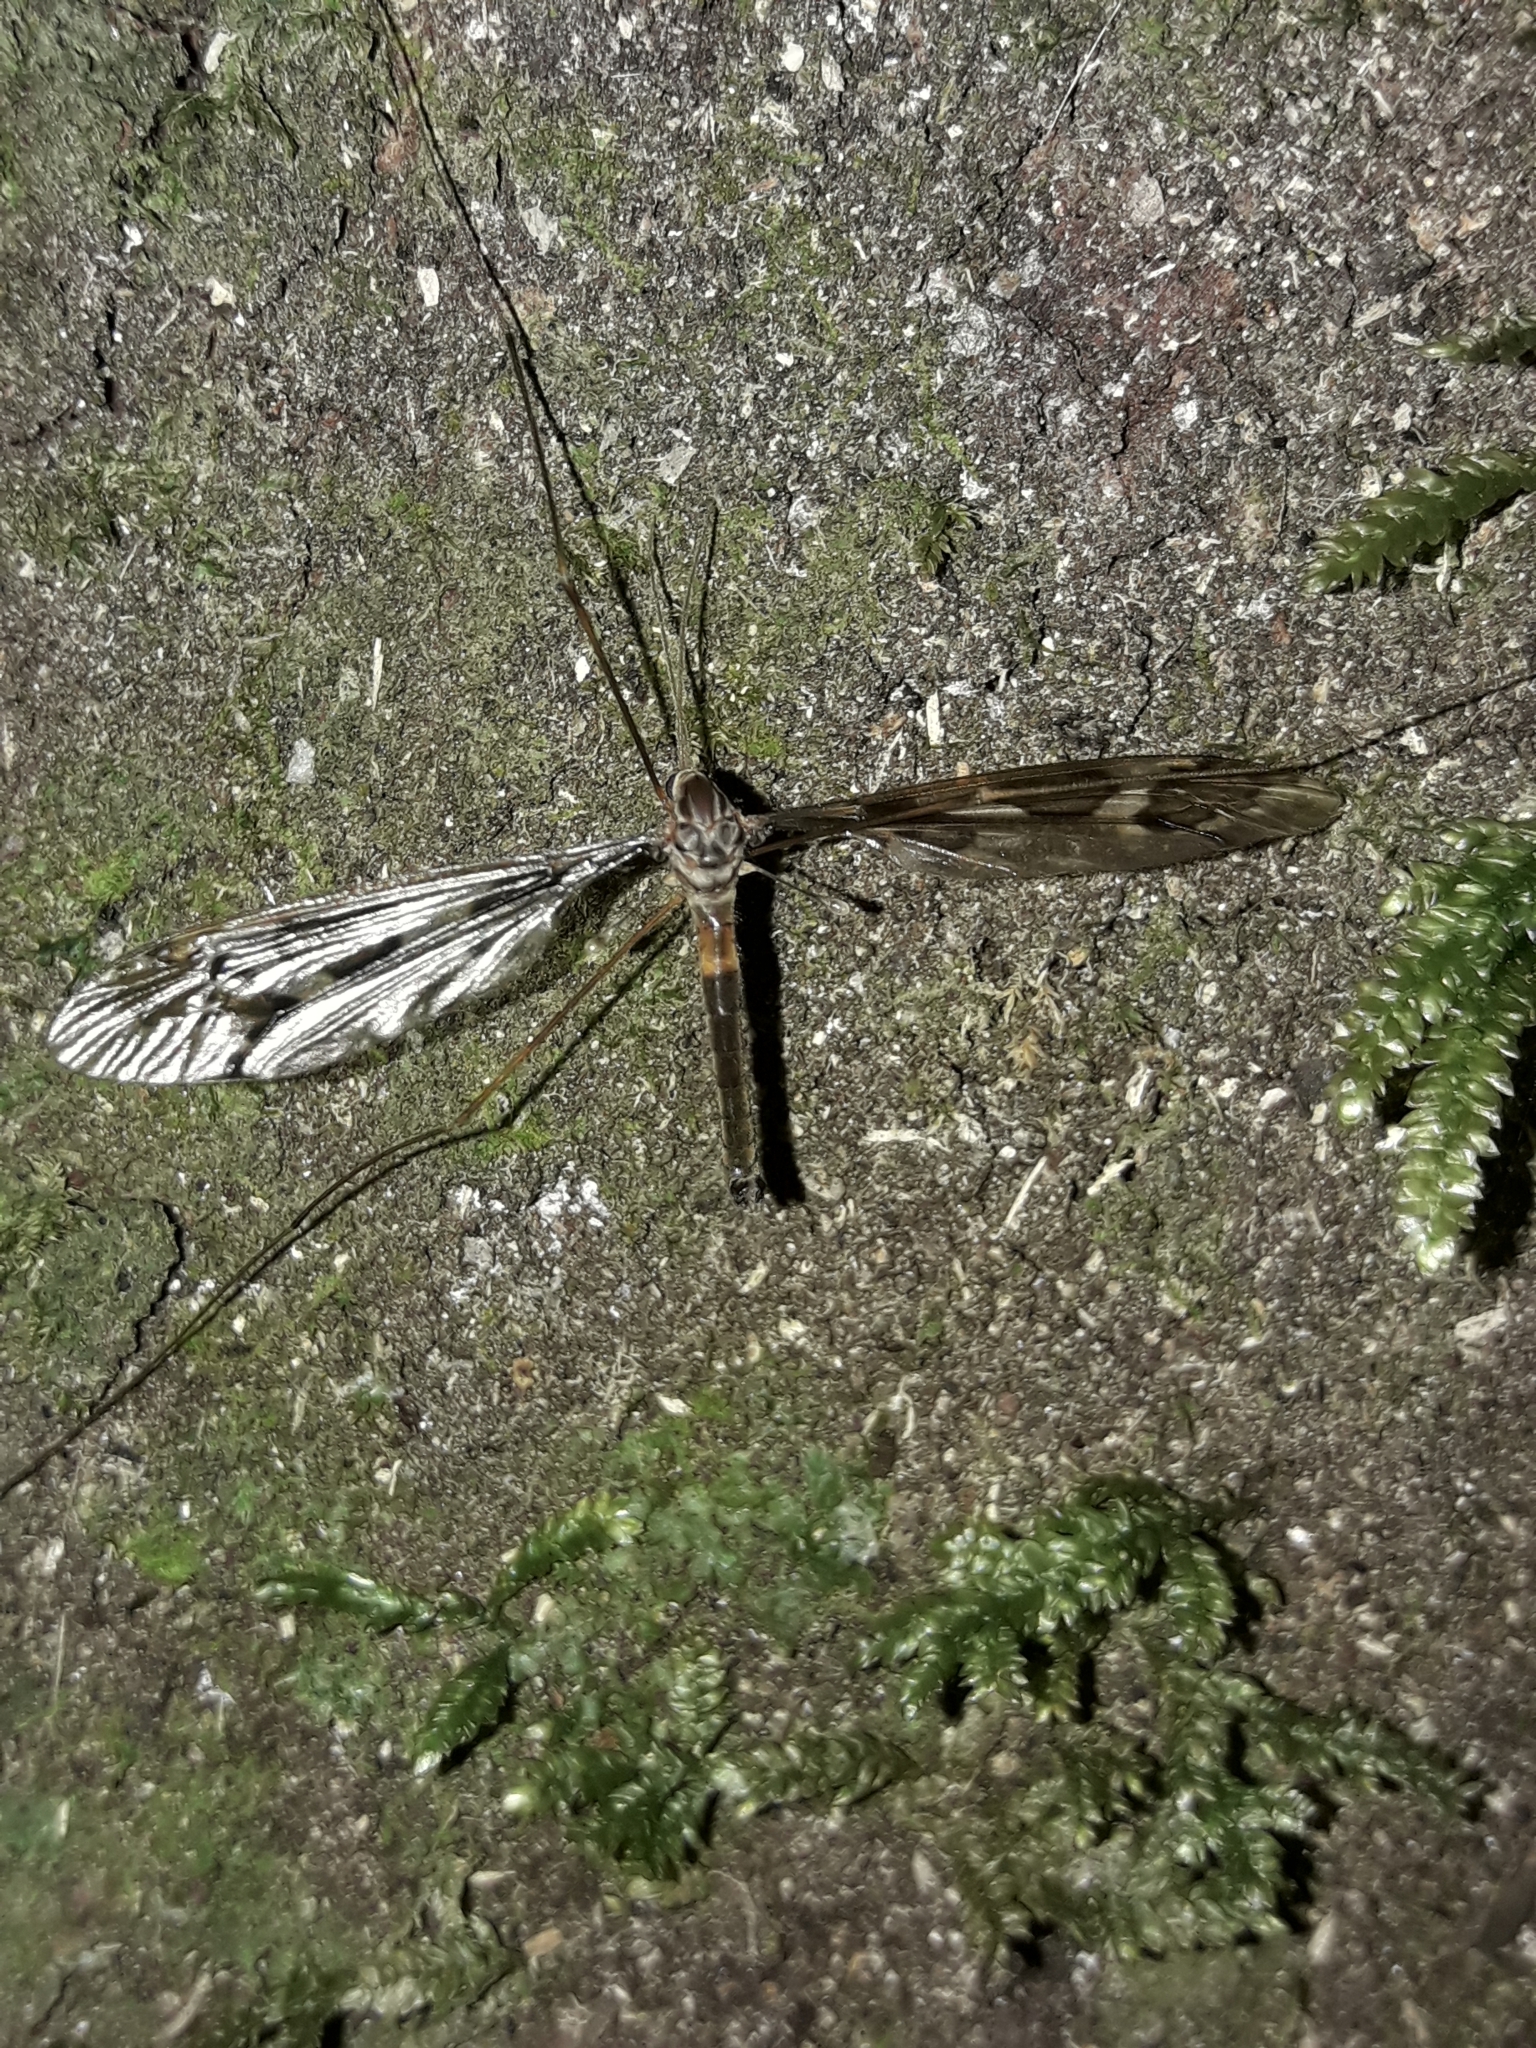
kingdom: Animalia
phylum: Arthropoda
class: Insecta
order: Diptera
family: Tipulidae
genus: Leptotarsus
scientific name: Leptotarsus binotatus
